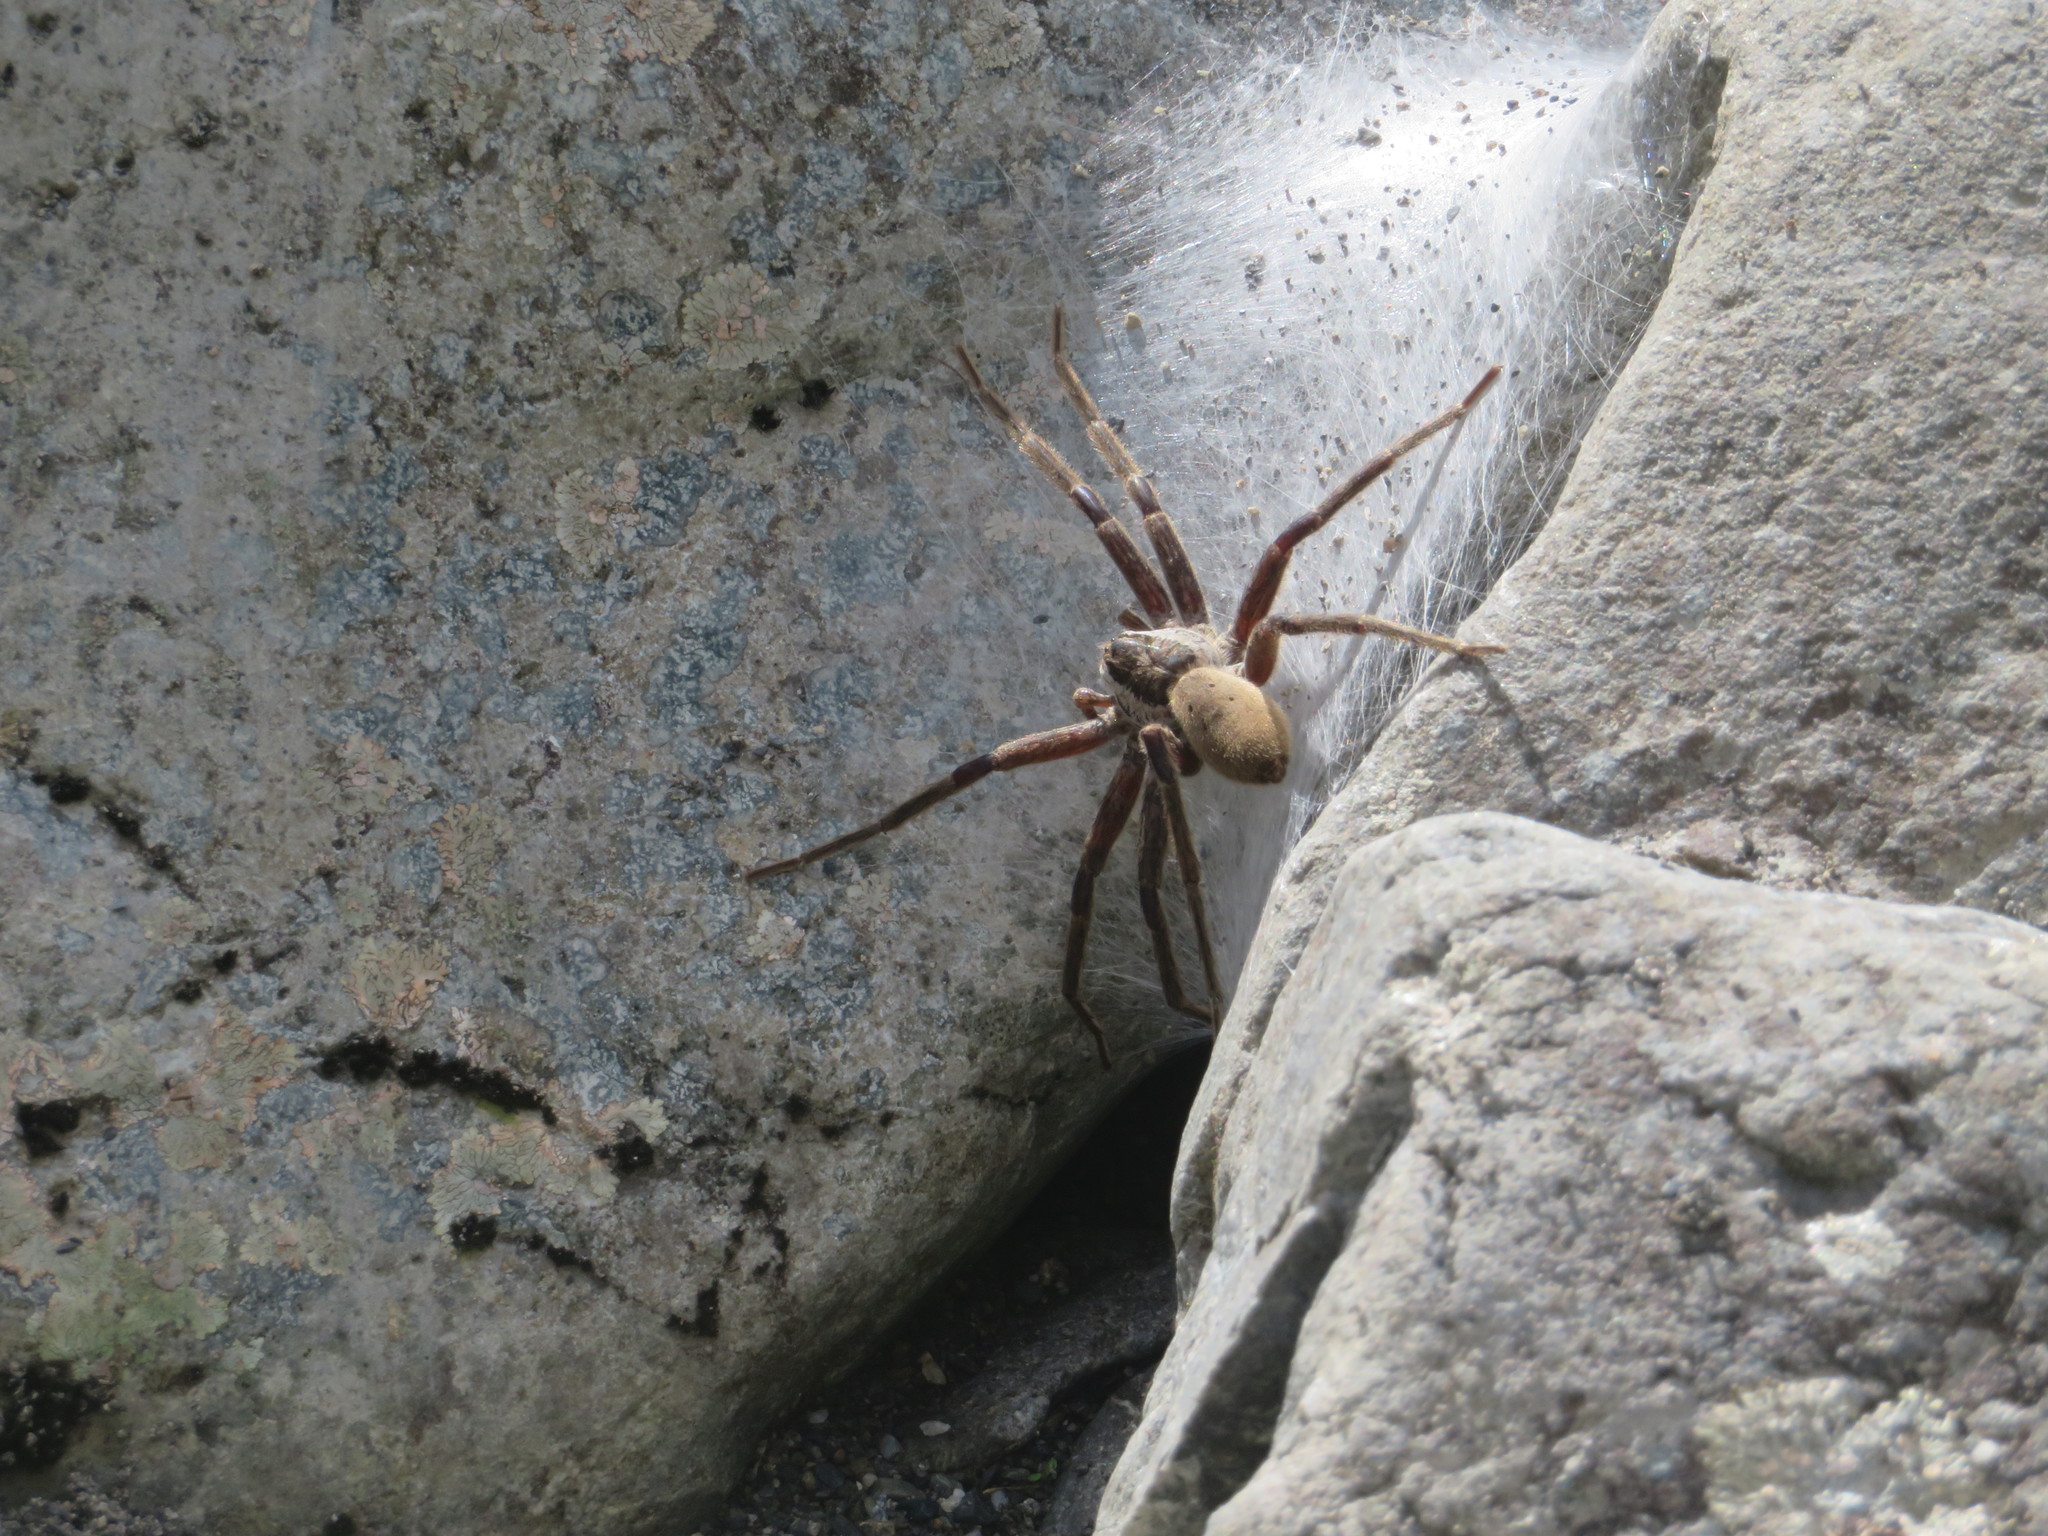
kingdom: Animalia
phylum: Arthropoda
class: Arachnida
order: Araneae
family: Pisauridae
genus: Dolomedes
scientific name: Dolomedes aquaticus
